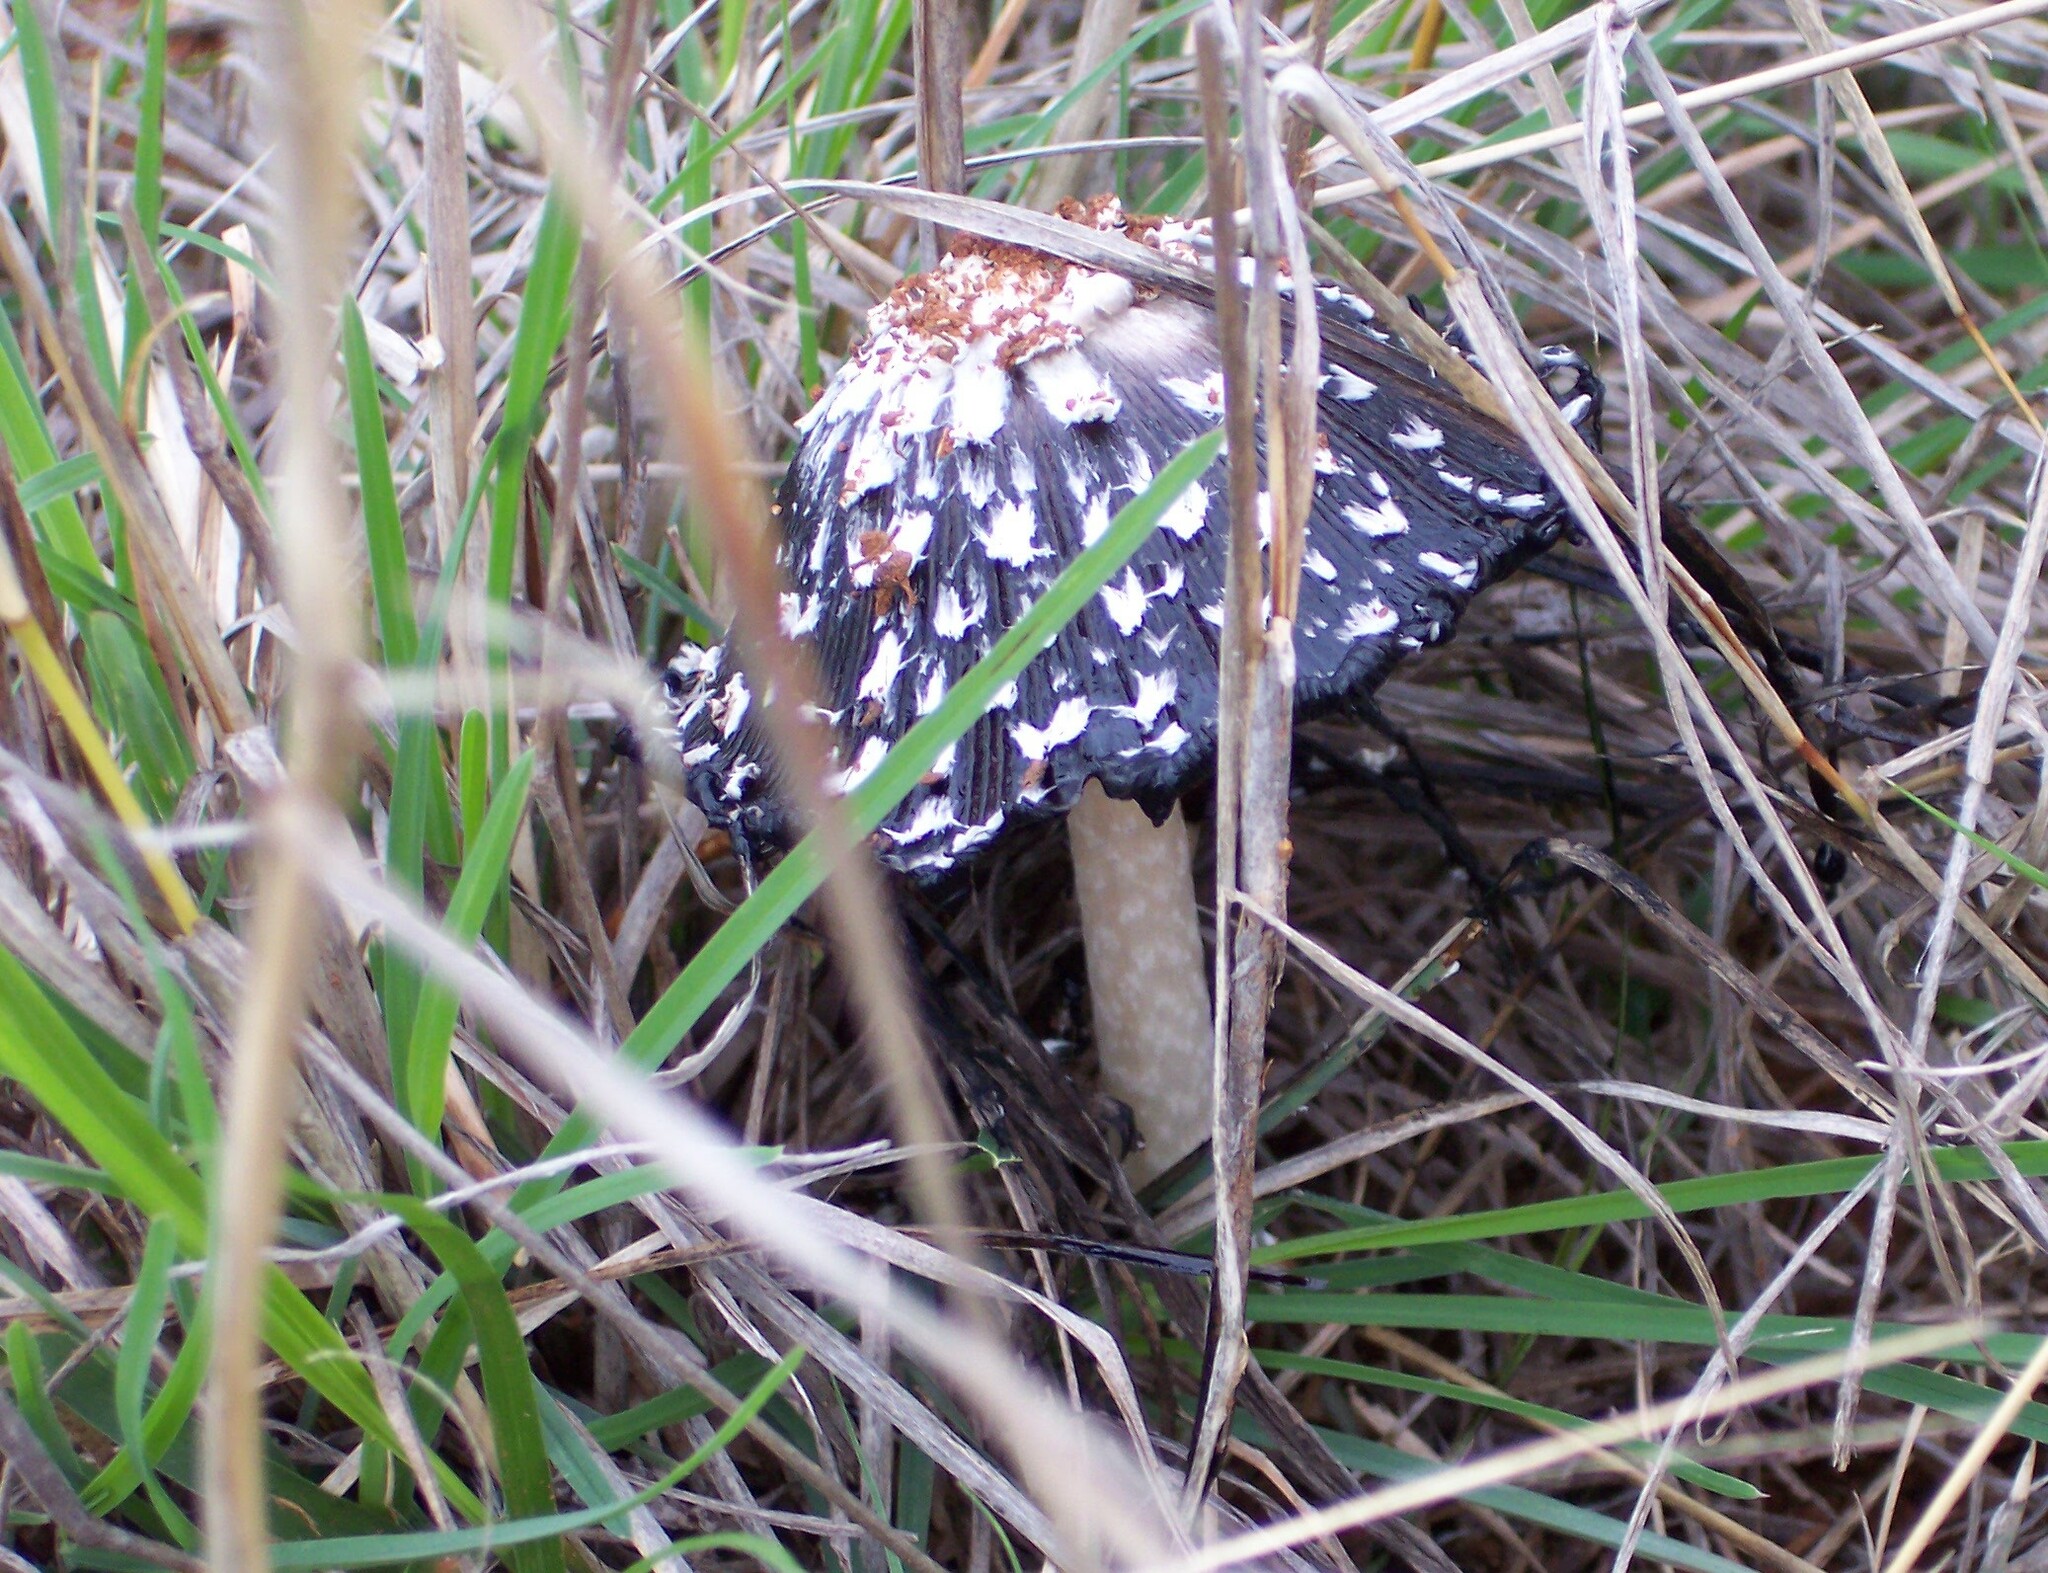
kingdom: Fungi
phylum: Basidiomycota
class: Agaricomycetes
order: Agaricales
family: Agaricaceae
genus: Coprinus
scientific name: Coprinus comatus
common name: Lawyer's wig
